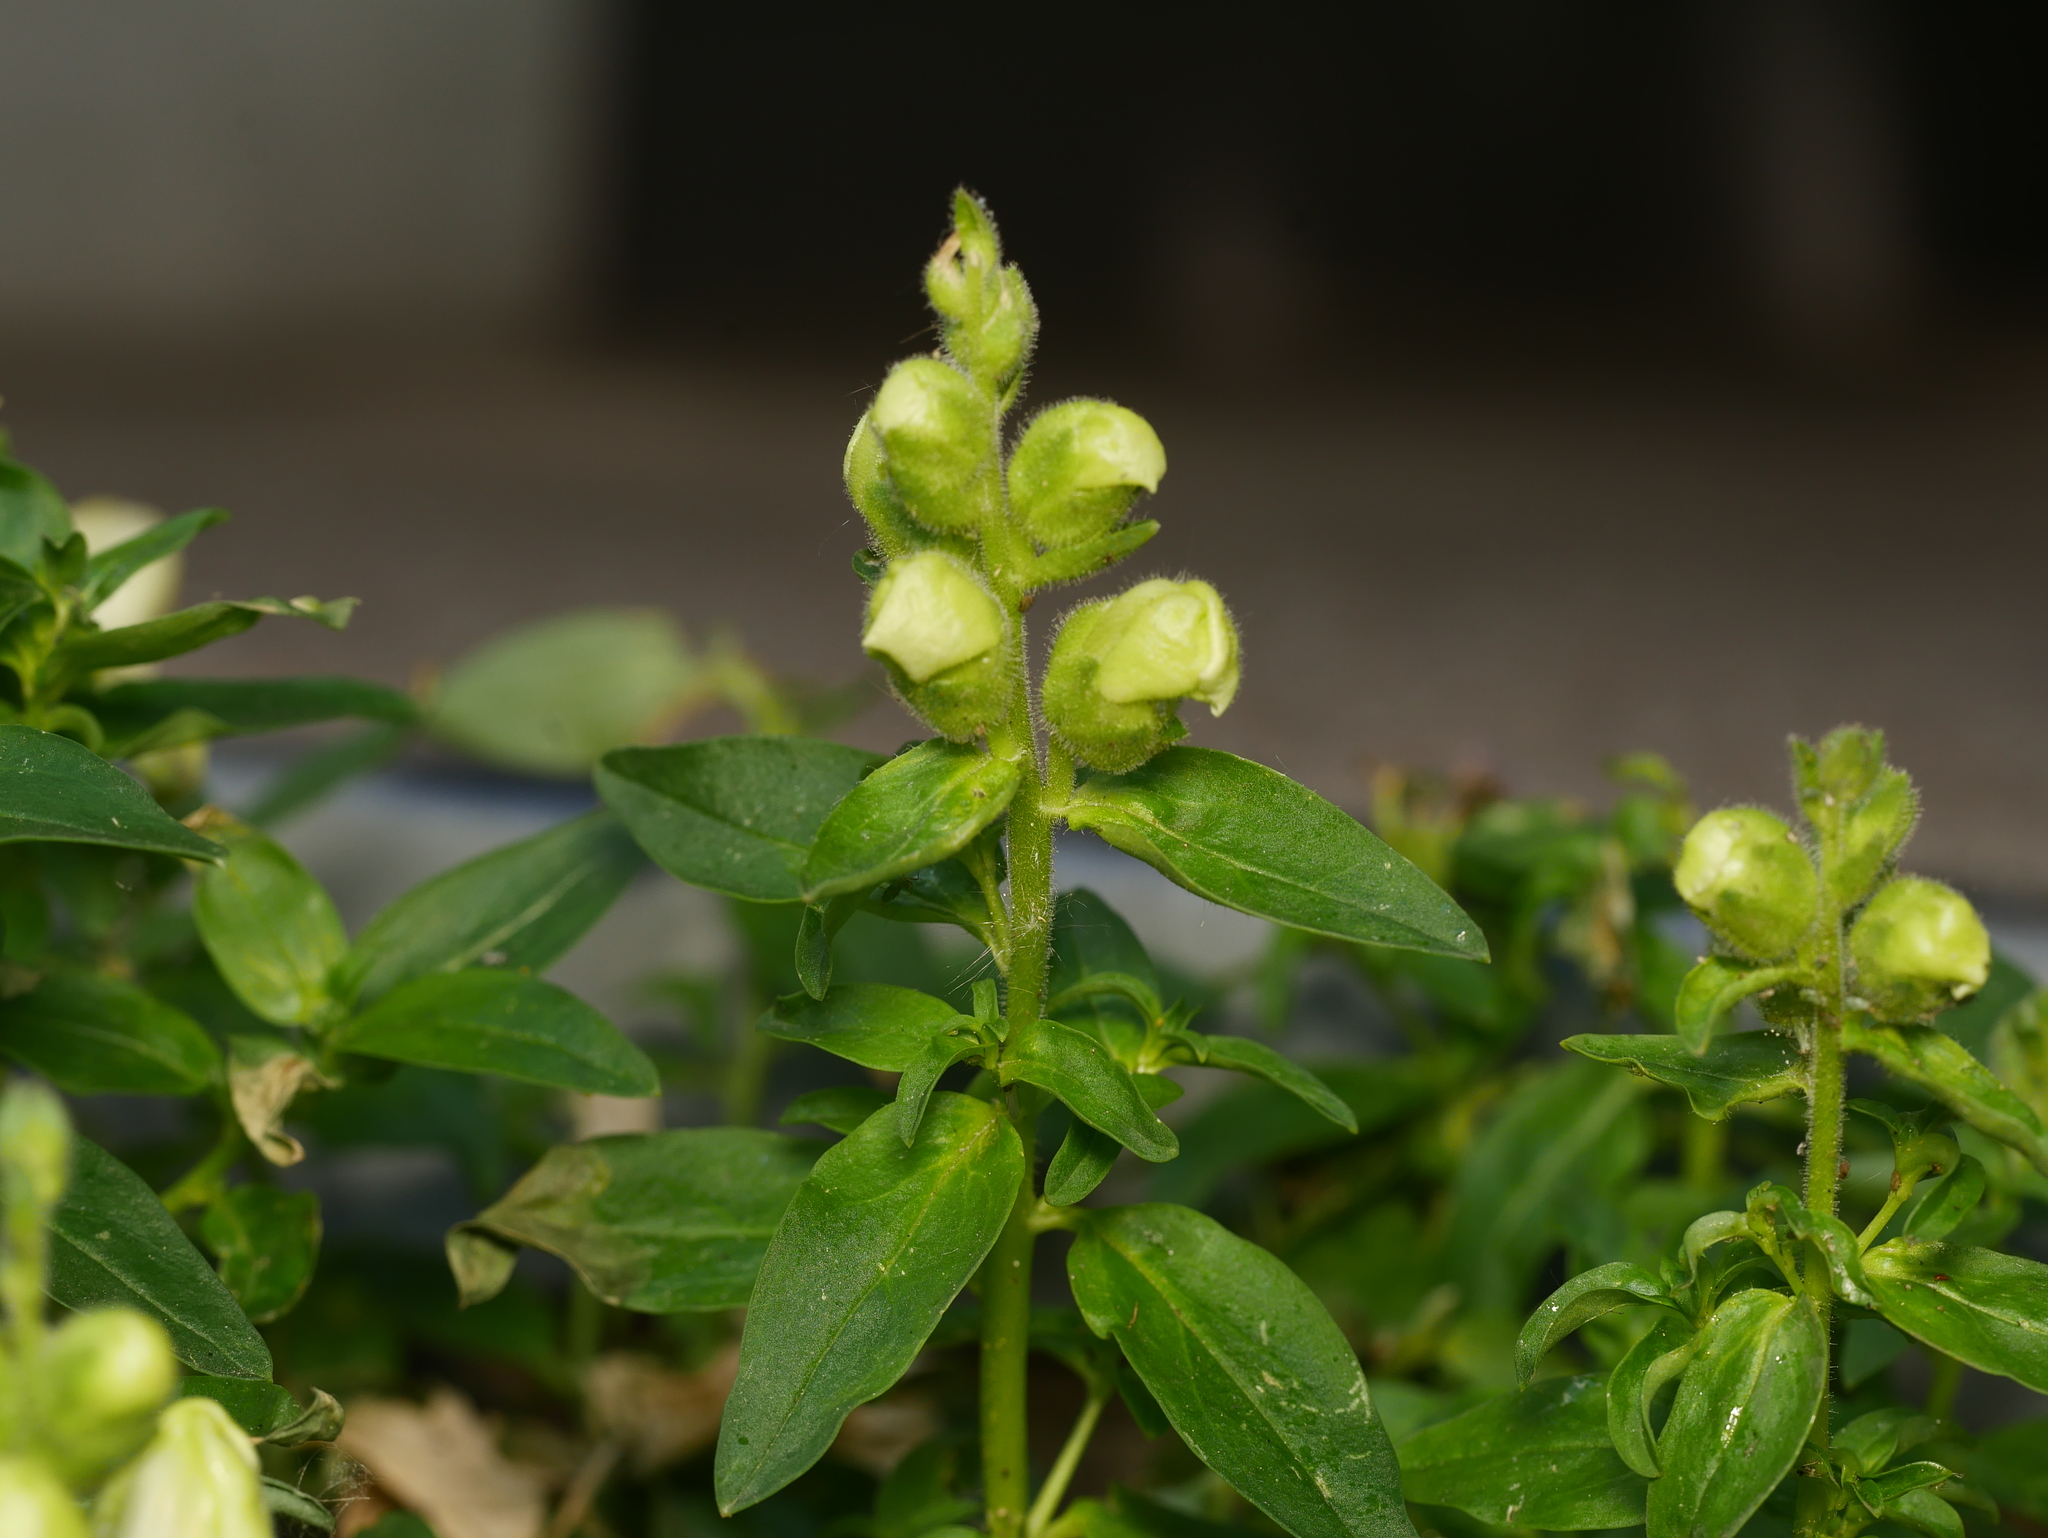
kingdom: Plantae
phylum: Tracheophyta
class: Magnoliopsida
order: Lamiales
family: Plantaginaceae
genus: Antirrhinum
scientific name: Antirrhinum majus
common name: Snapdragon
